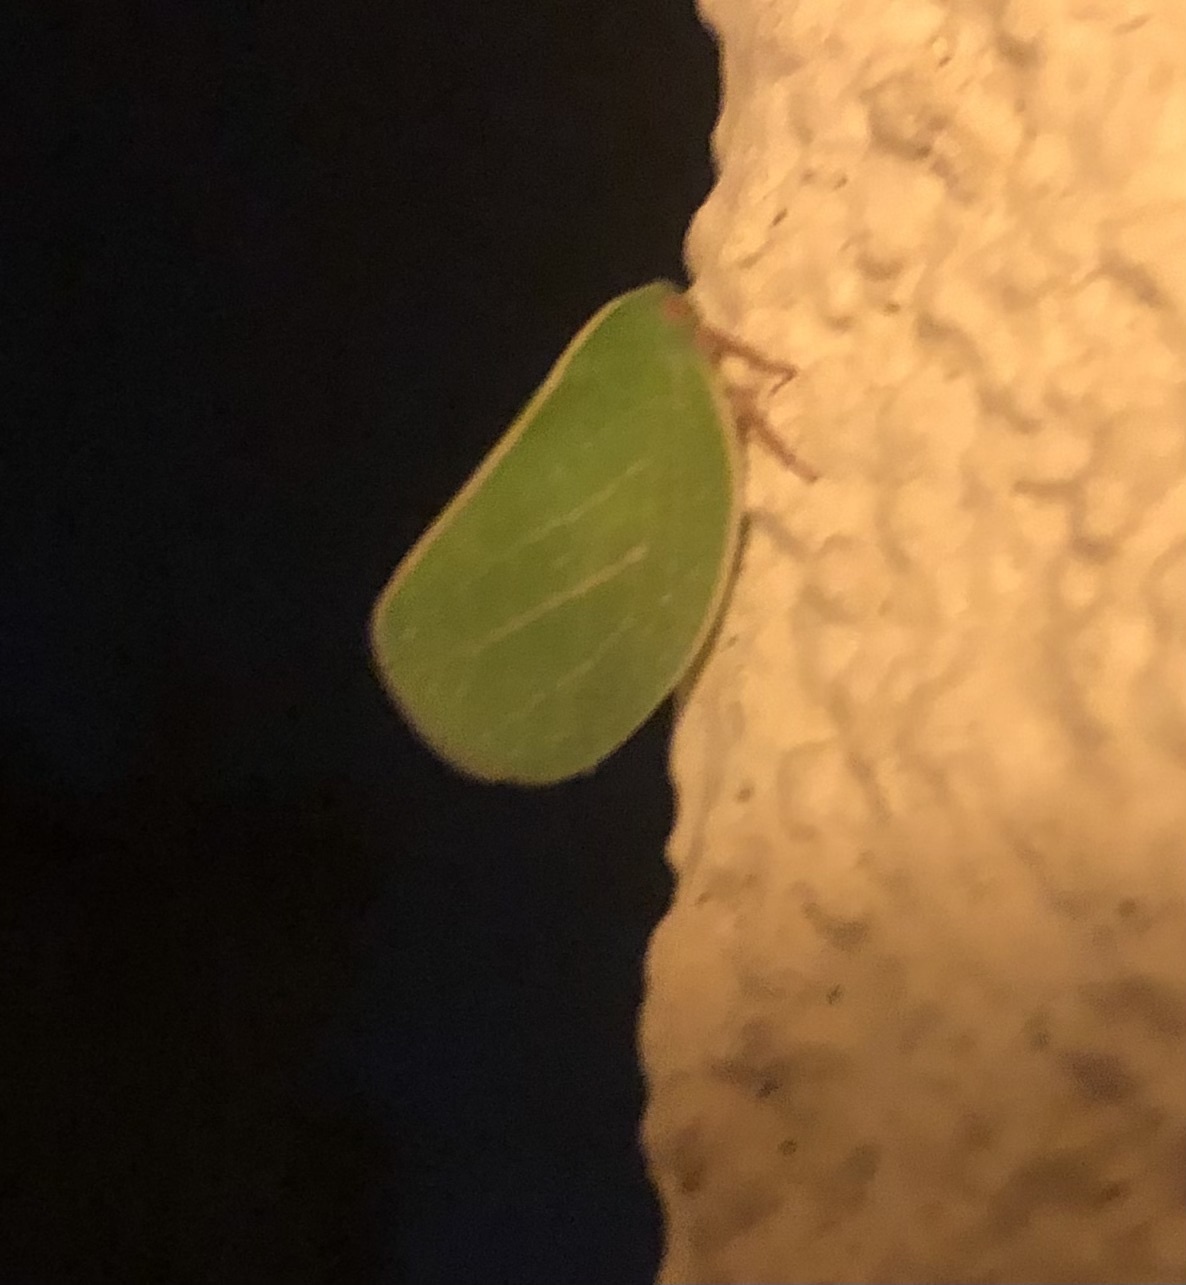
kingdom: Animalia
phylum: Arthropoda
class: Insecta
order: Hemiptera
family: Acanaloniidae
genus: Acanalonia
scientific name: Acanalonia servillei
